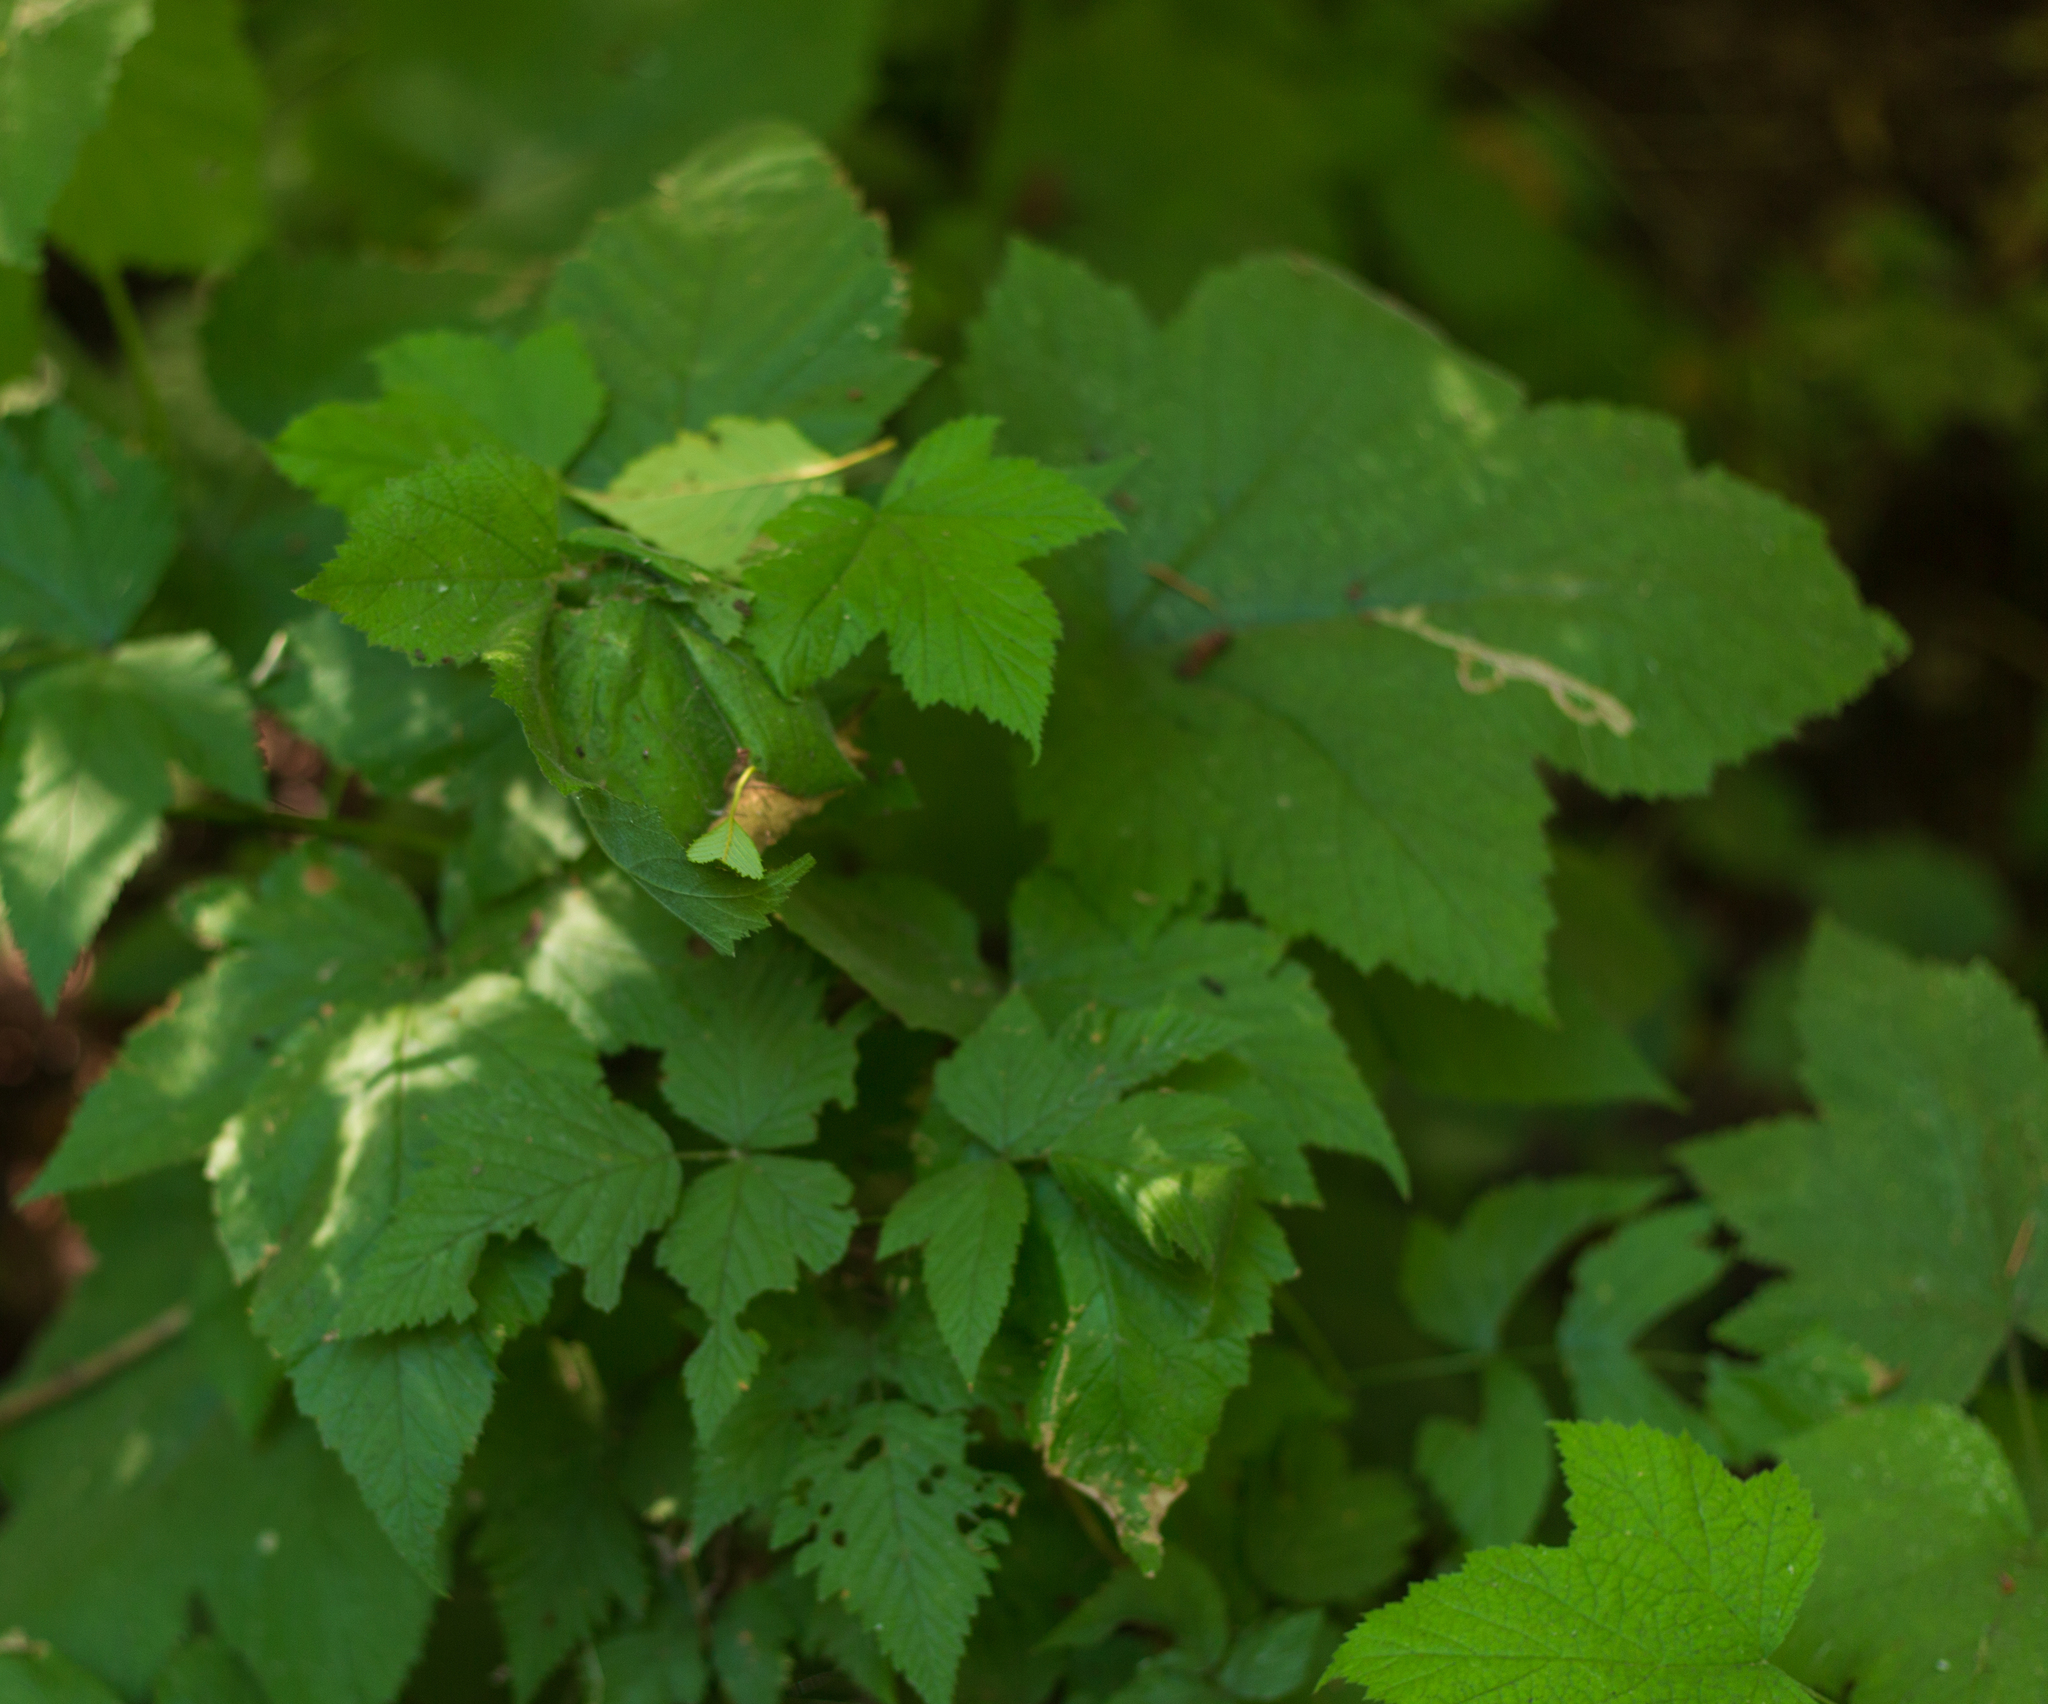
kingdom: Animalia
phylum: Arthropoda
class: Insecta
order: Diptera
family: Agromyzidae
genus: Agromyza
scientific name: Agromyza vockerothi
